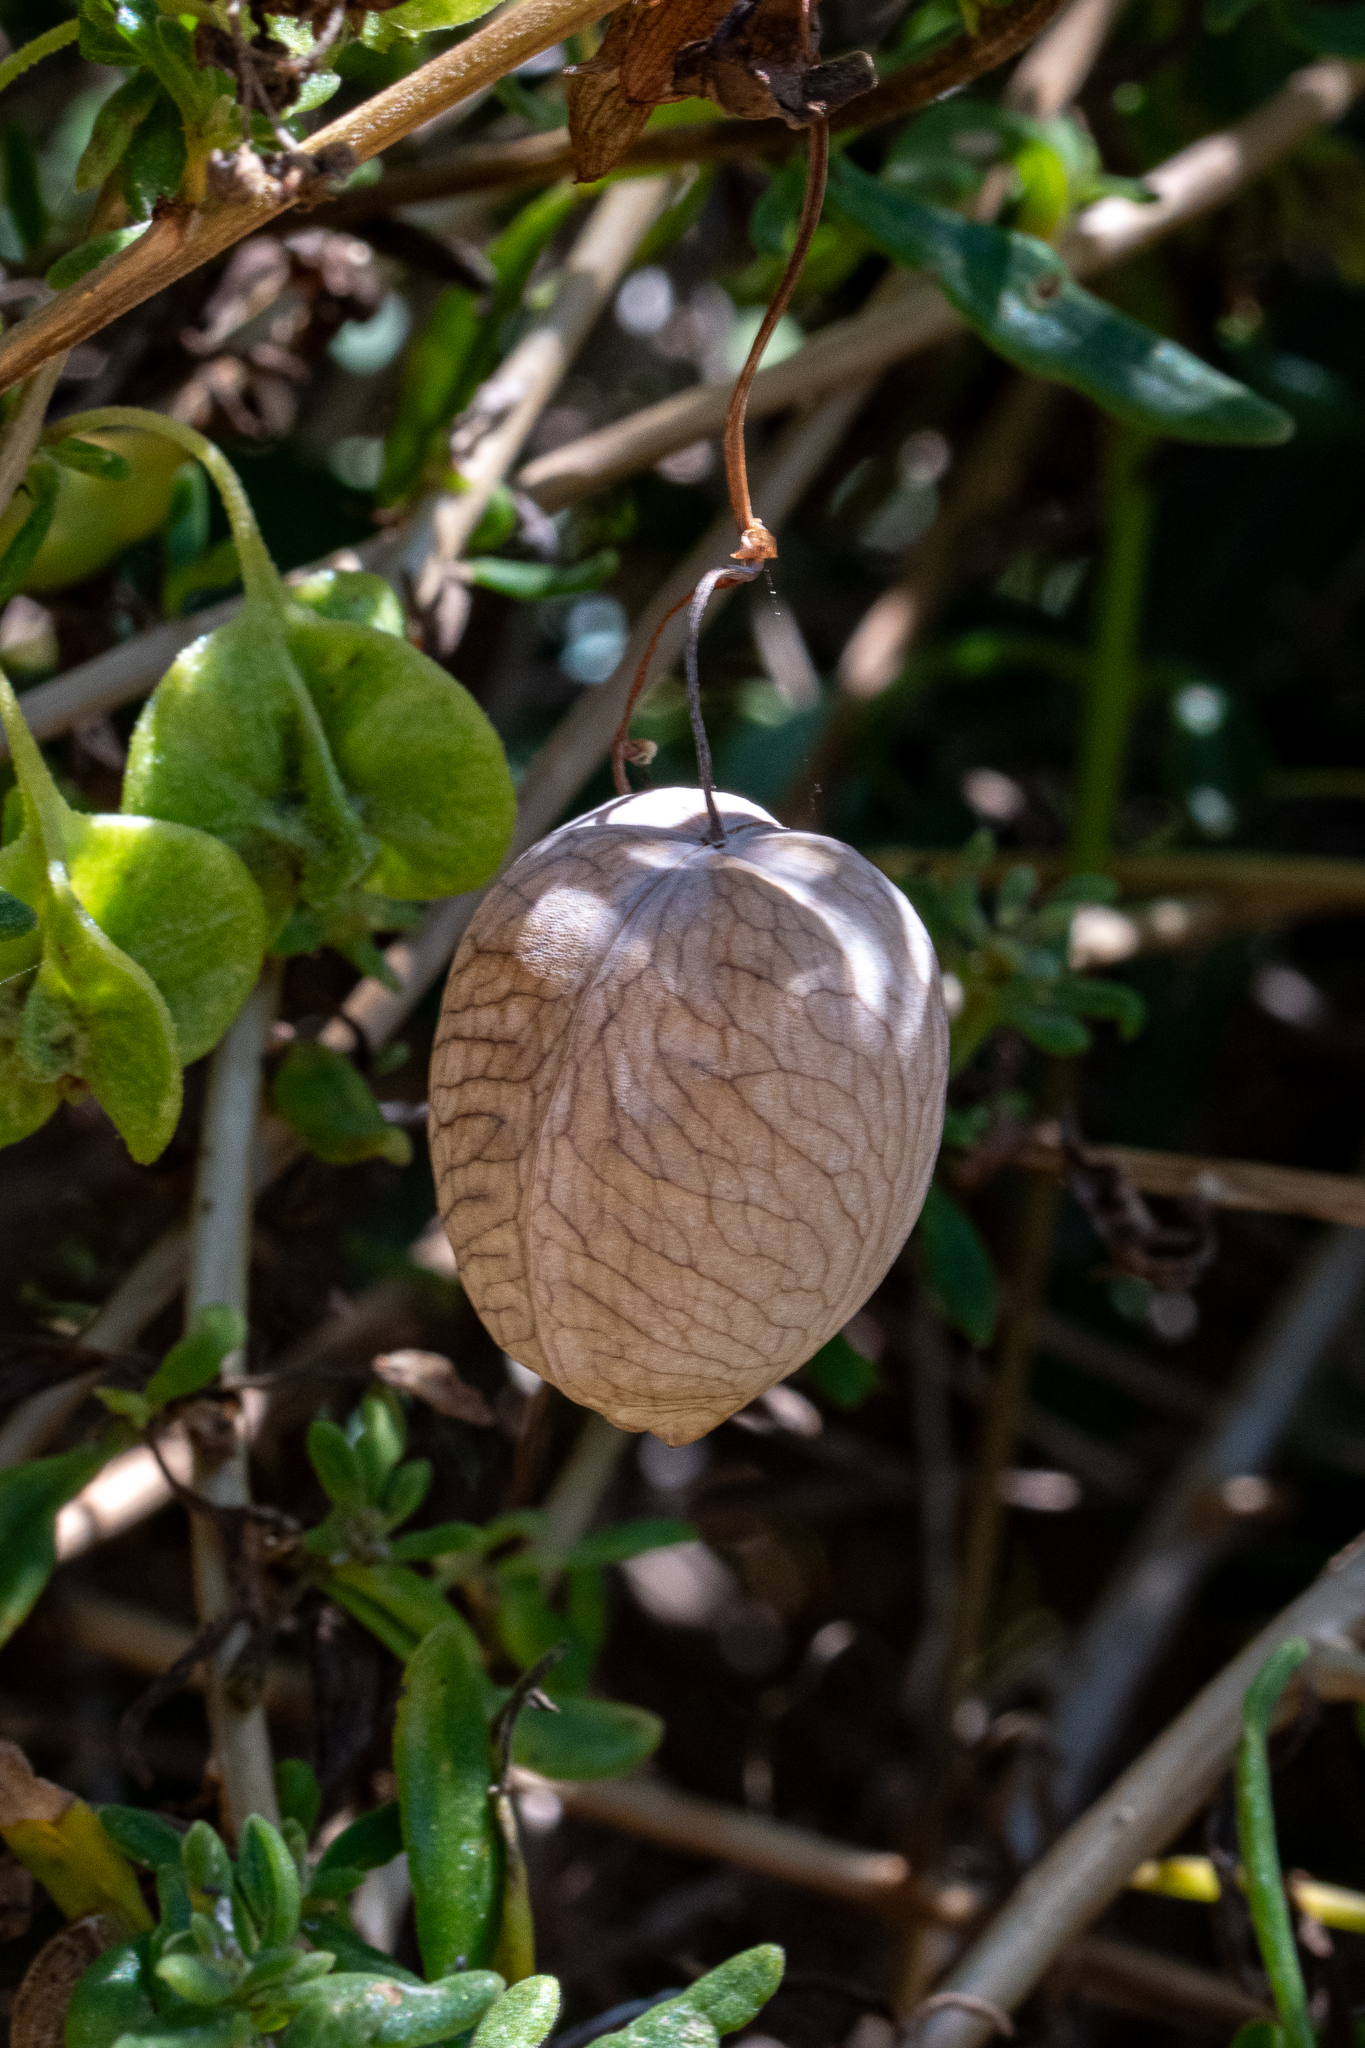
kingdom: Plantae
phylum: Tracheophyta
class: Magnoliopsida
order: Ranunculales
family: Papaveraceae
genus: Cysticapnos
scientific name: Cysticapnos vesicaria
